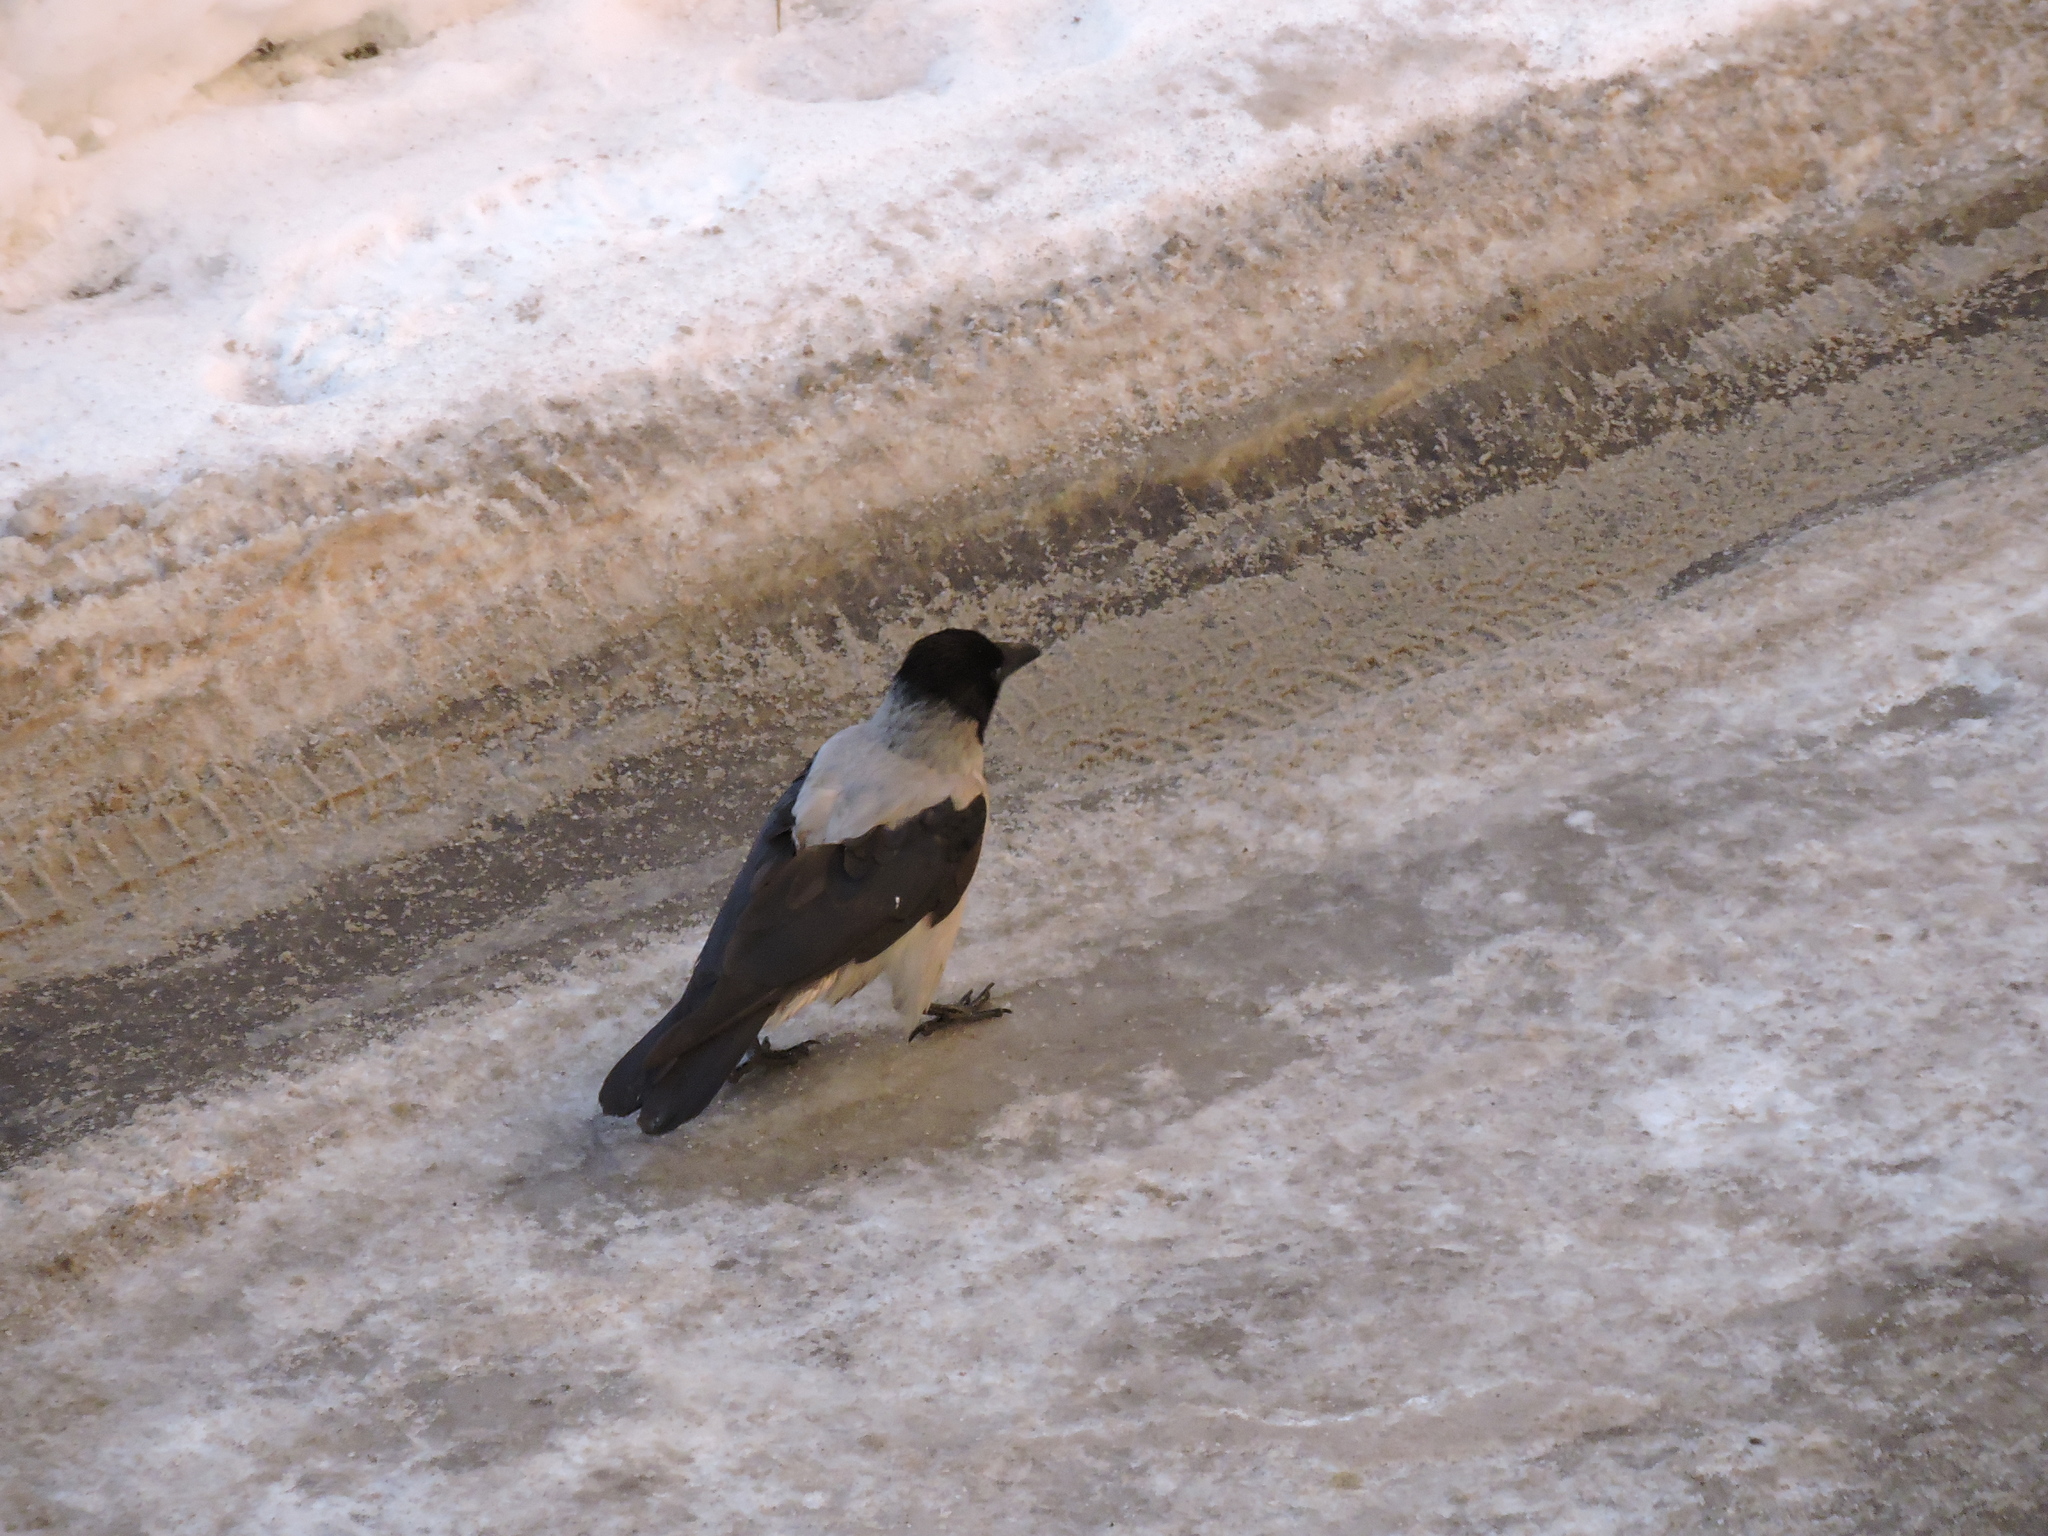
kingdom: Animalia
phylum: Chordata
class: Aves
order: Passeriformes
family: Corvidae
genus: Corvus
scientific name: Corvus cornix
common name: Hooded crow
